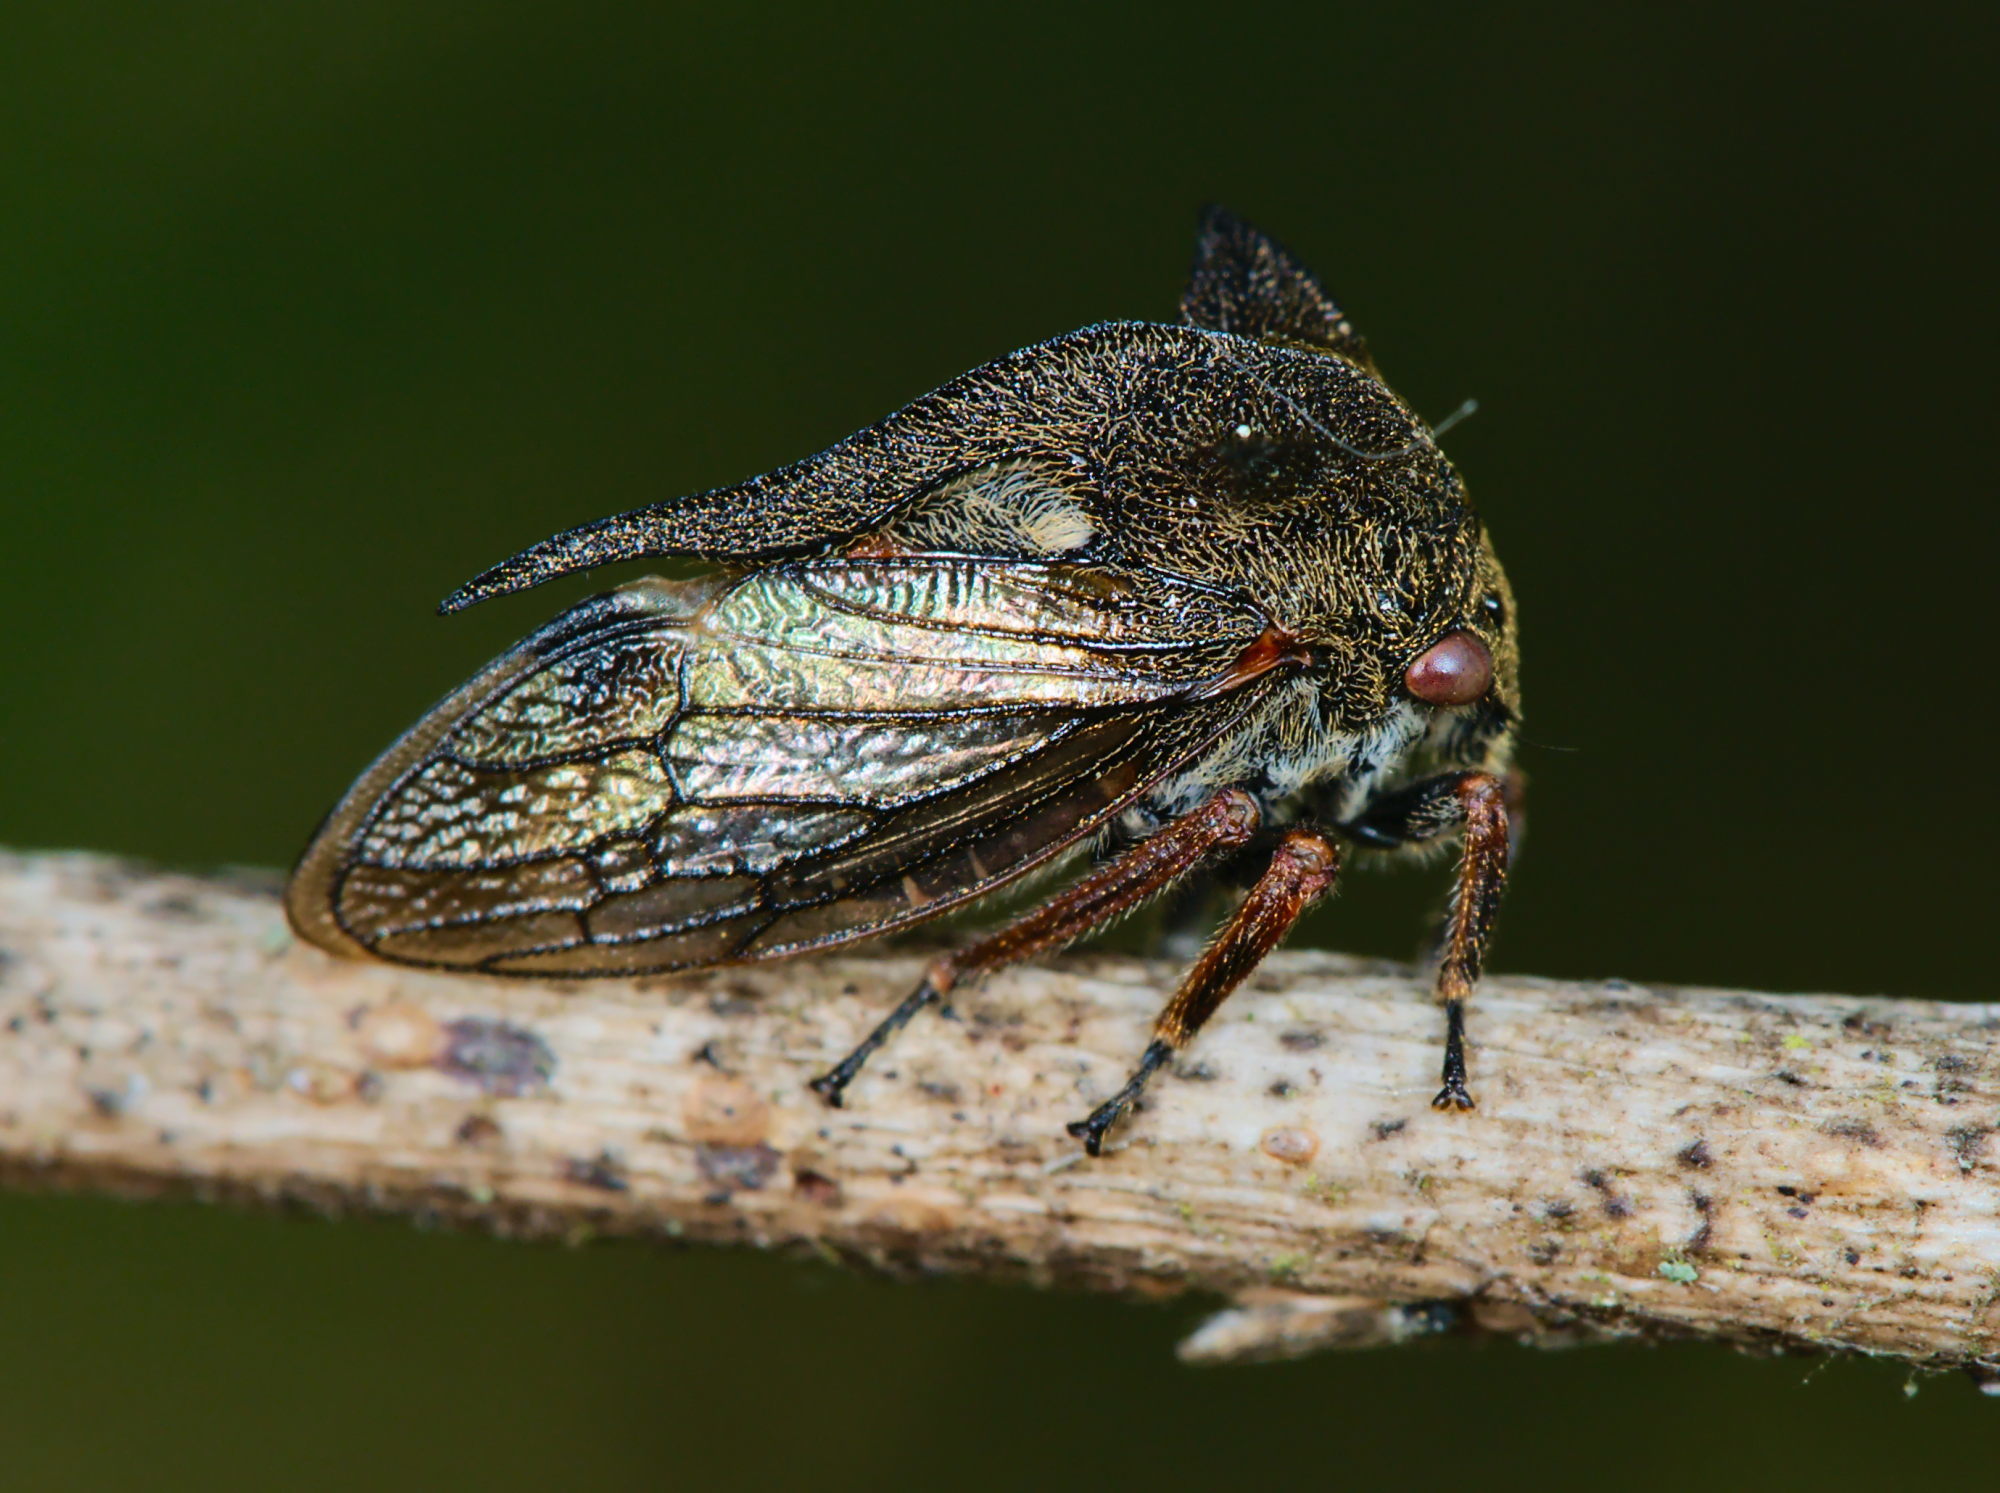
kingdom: Animalia
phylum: Arthropoda
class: Insecta
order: Hemiptera
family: Membracidae
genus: Centrotus
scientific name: Centrotus cornuta
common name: Treehopper
